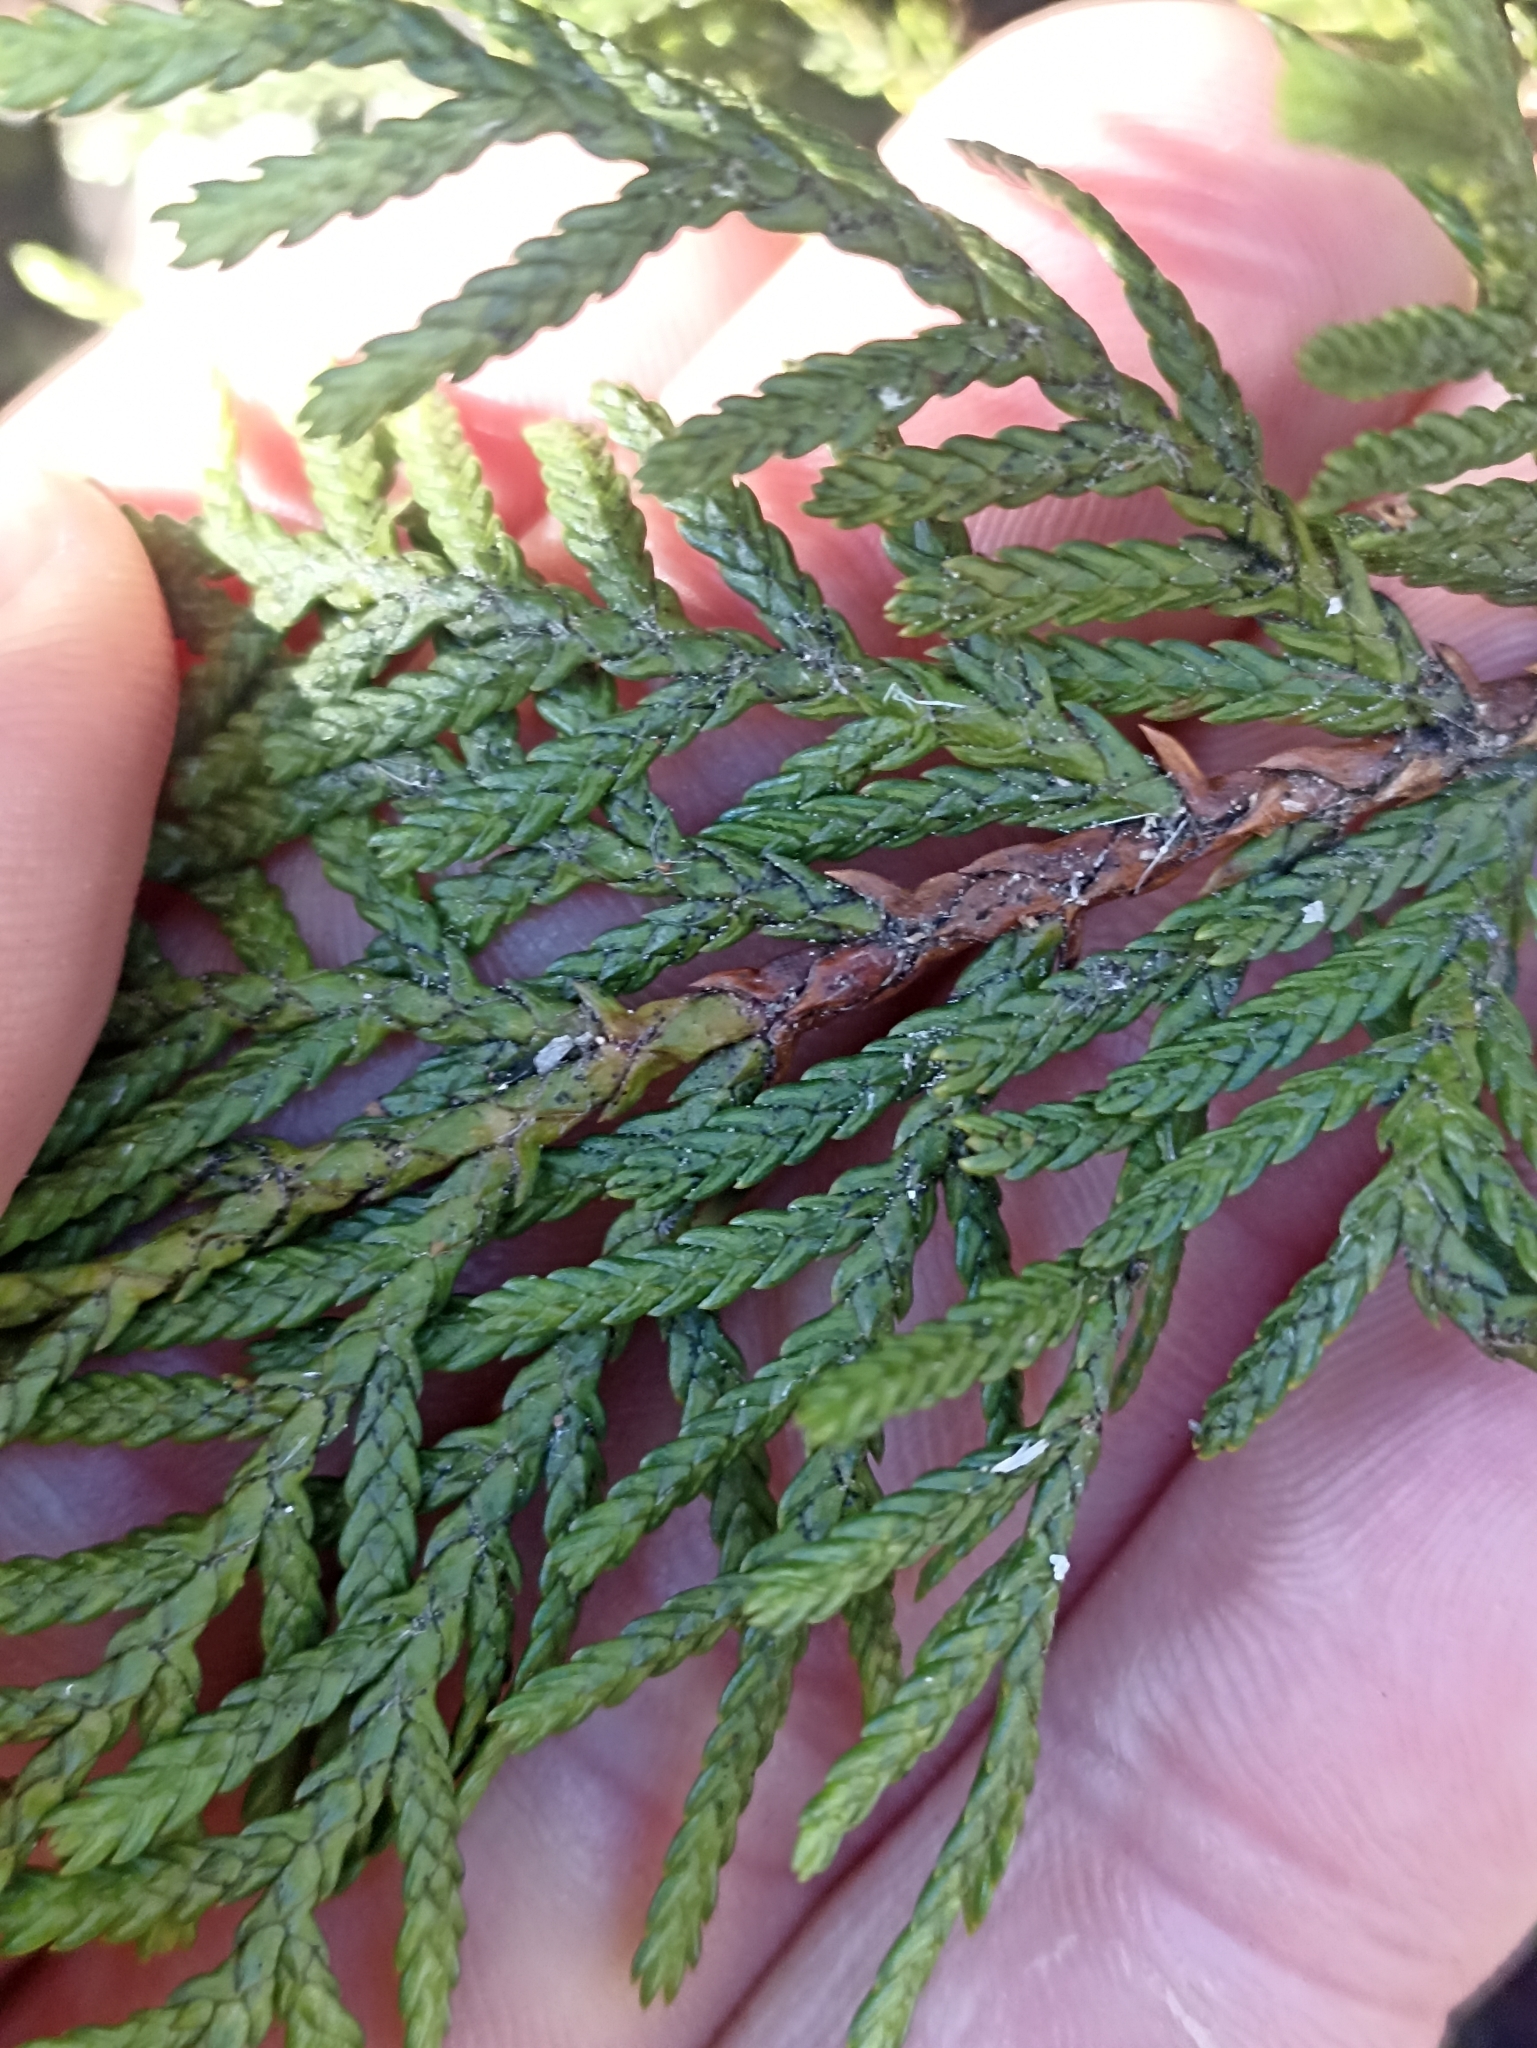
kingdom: Plantae
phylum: Tracheophyta
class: Pinopsida
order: Pinales
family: Cupressaceae
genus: Libocedrus
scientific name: Libocedrus bidwillii
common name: Cedar
